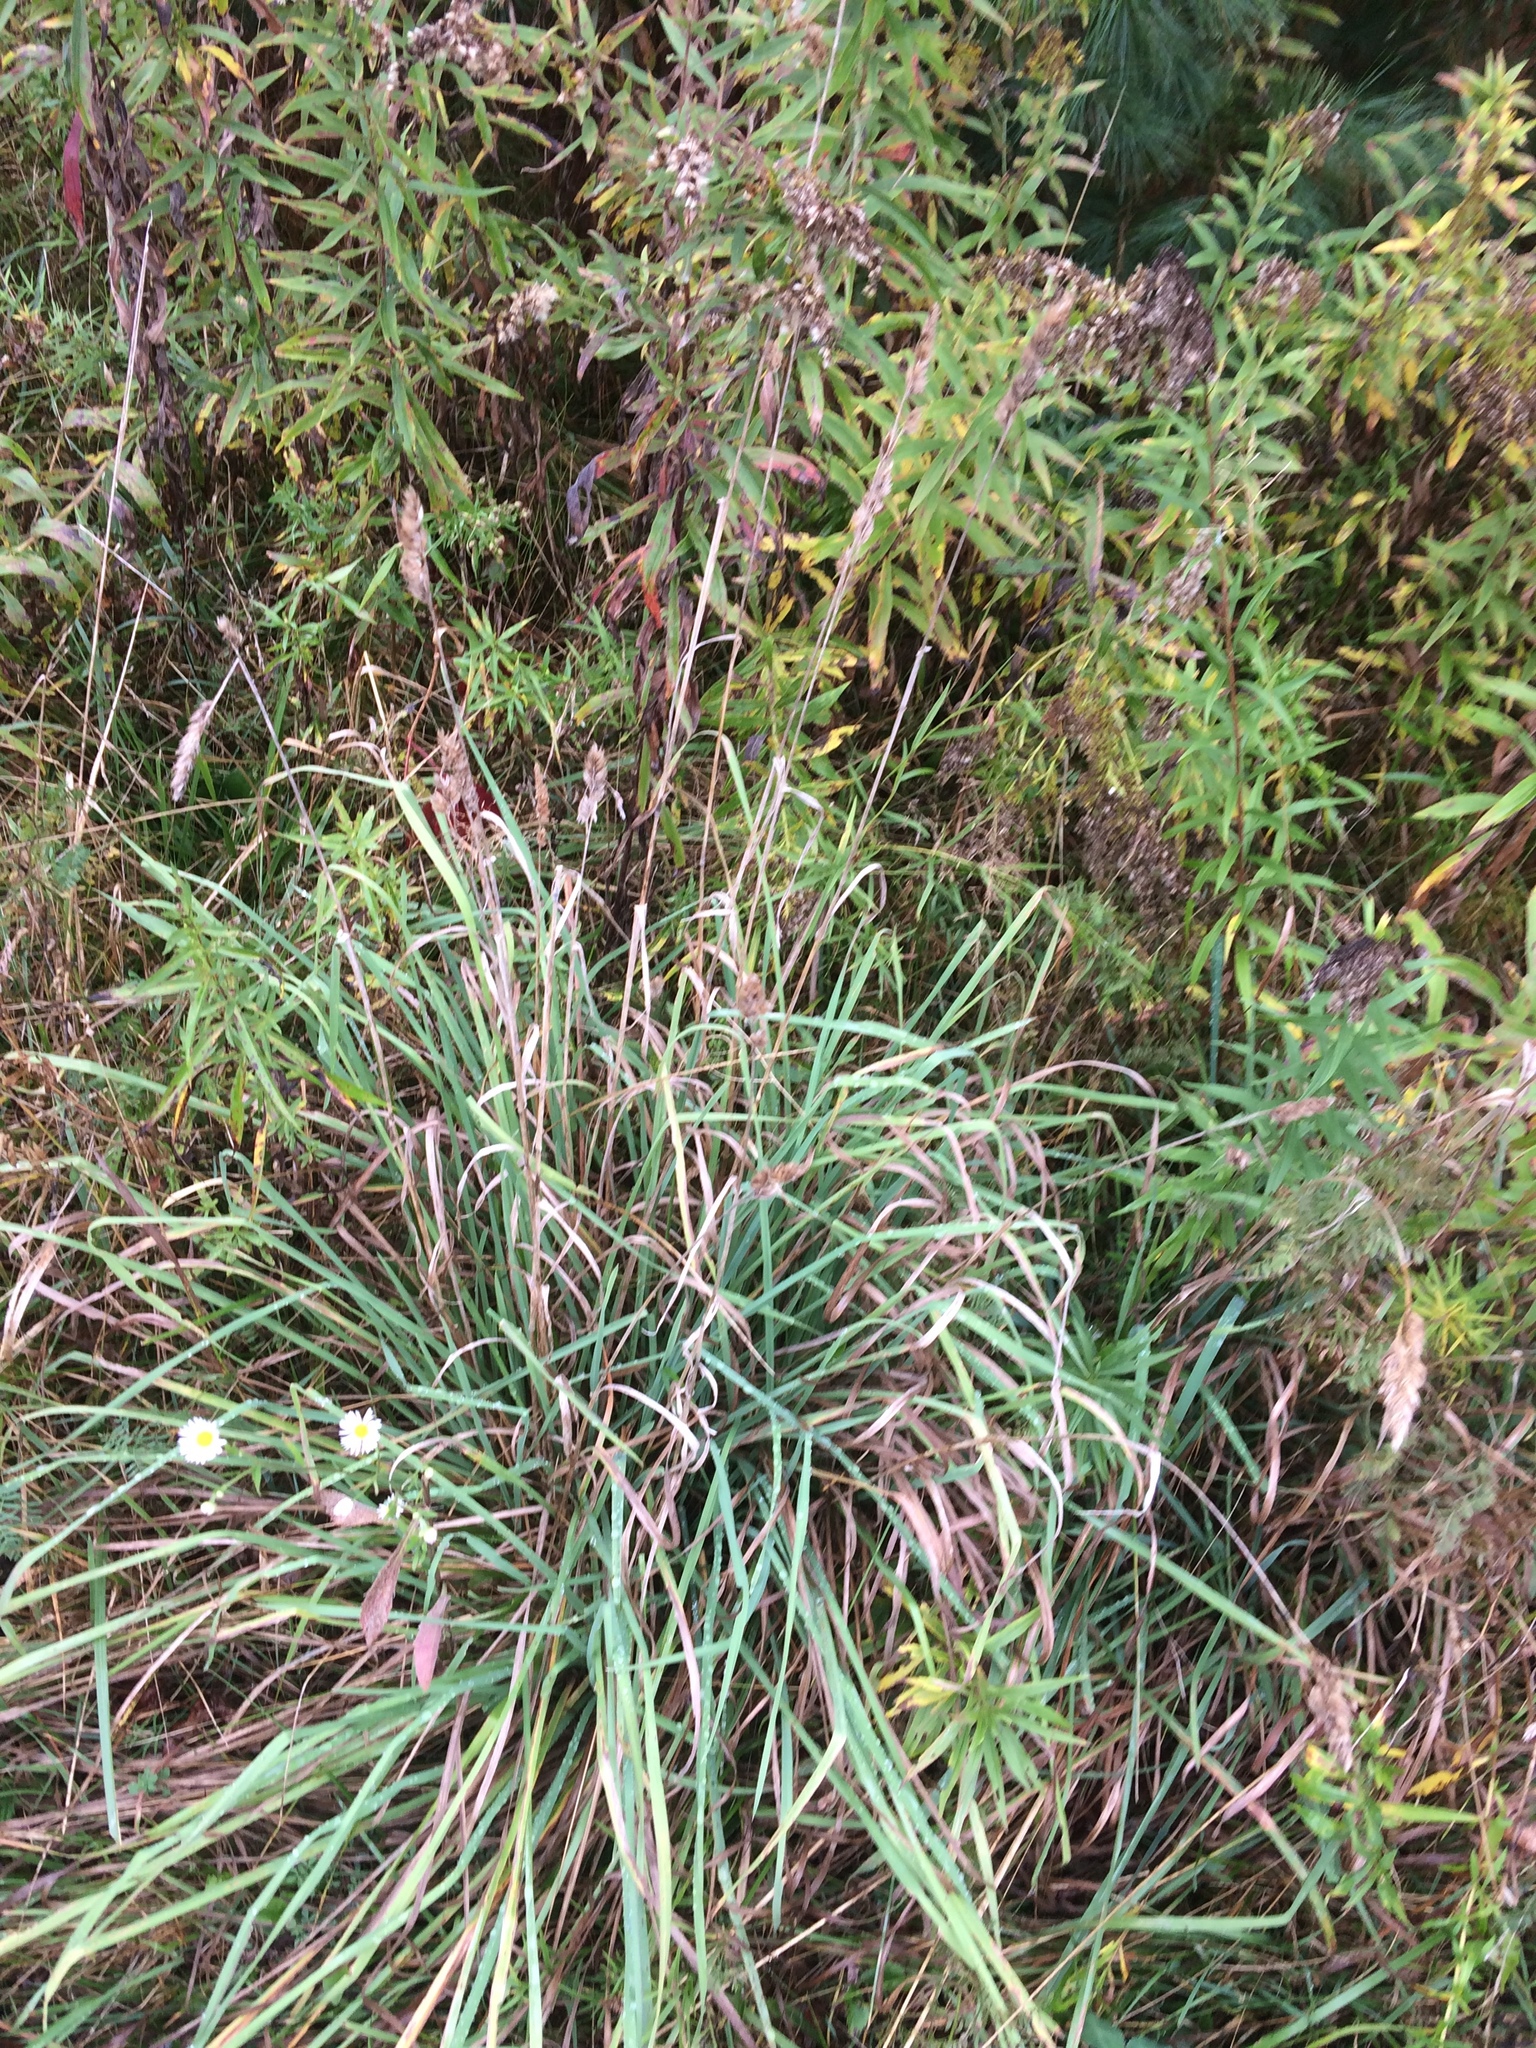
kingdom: Plantae
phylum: Tracheophyta
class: Liliopsida
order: Poales
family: Poaceae
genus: Dactylis
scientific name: Dactylis glomerata
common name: Orchardgrass
